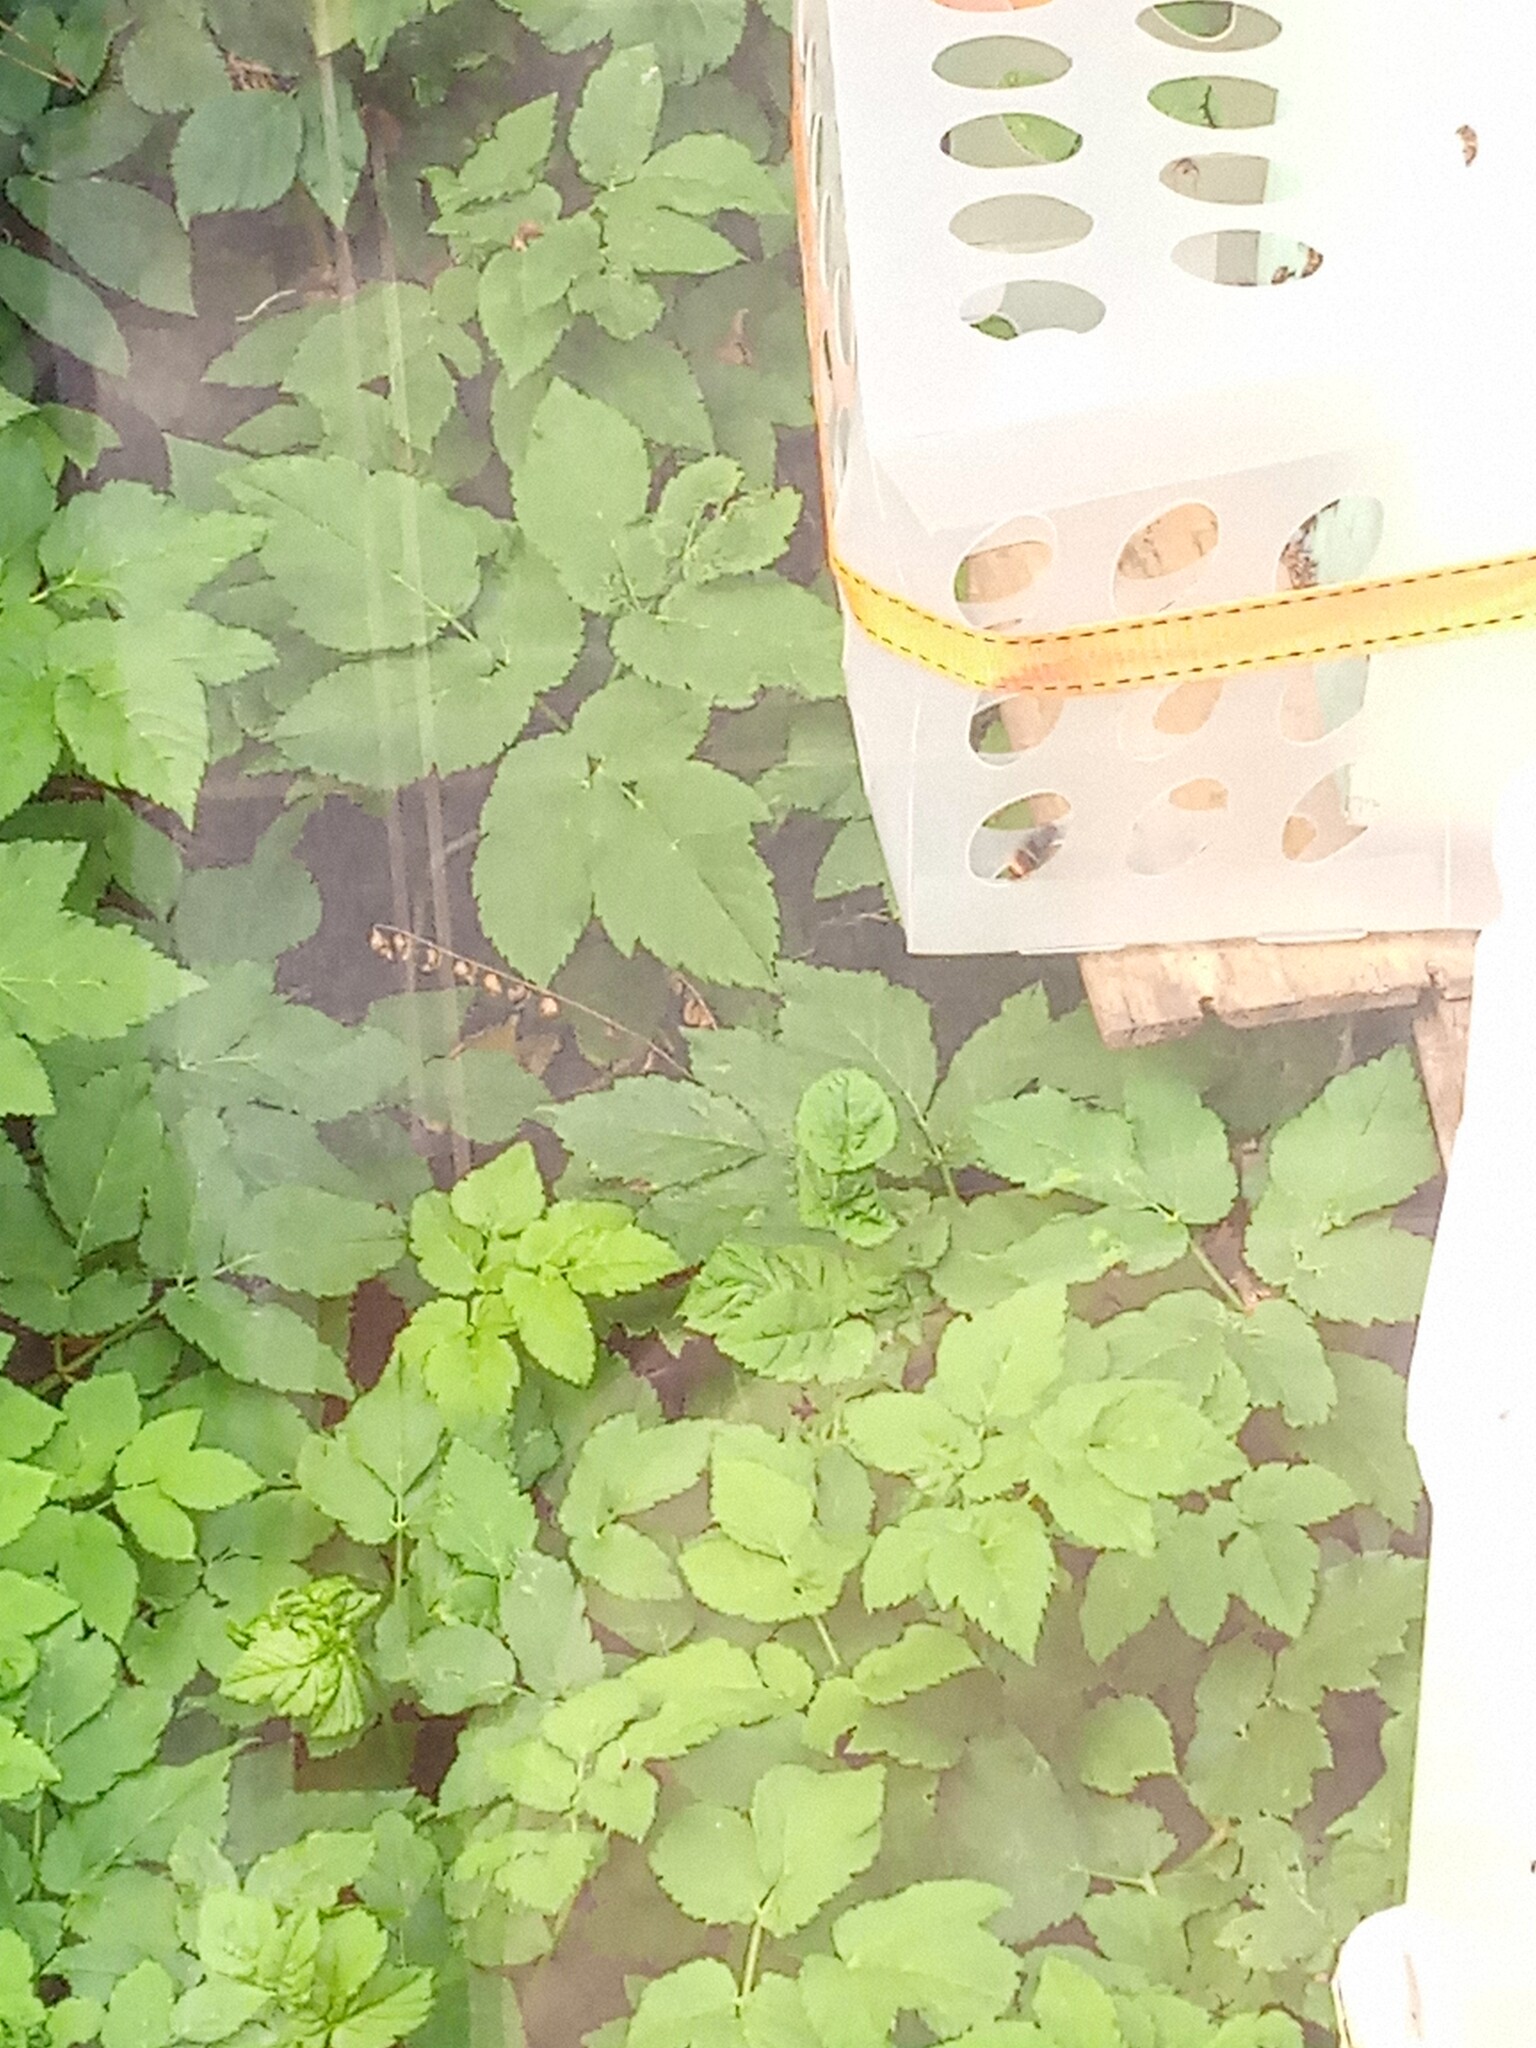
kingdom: Animalia
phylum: Arthropoda
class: Insecta
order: Hymenoptera
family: Vespidae
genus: Vespa
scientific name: Vespa velutina
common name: Asian hornet
